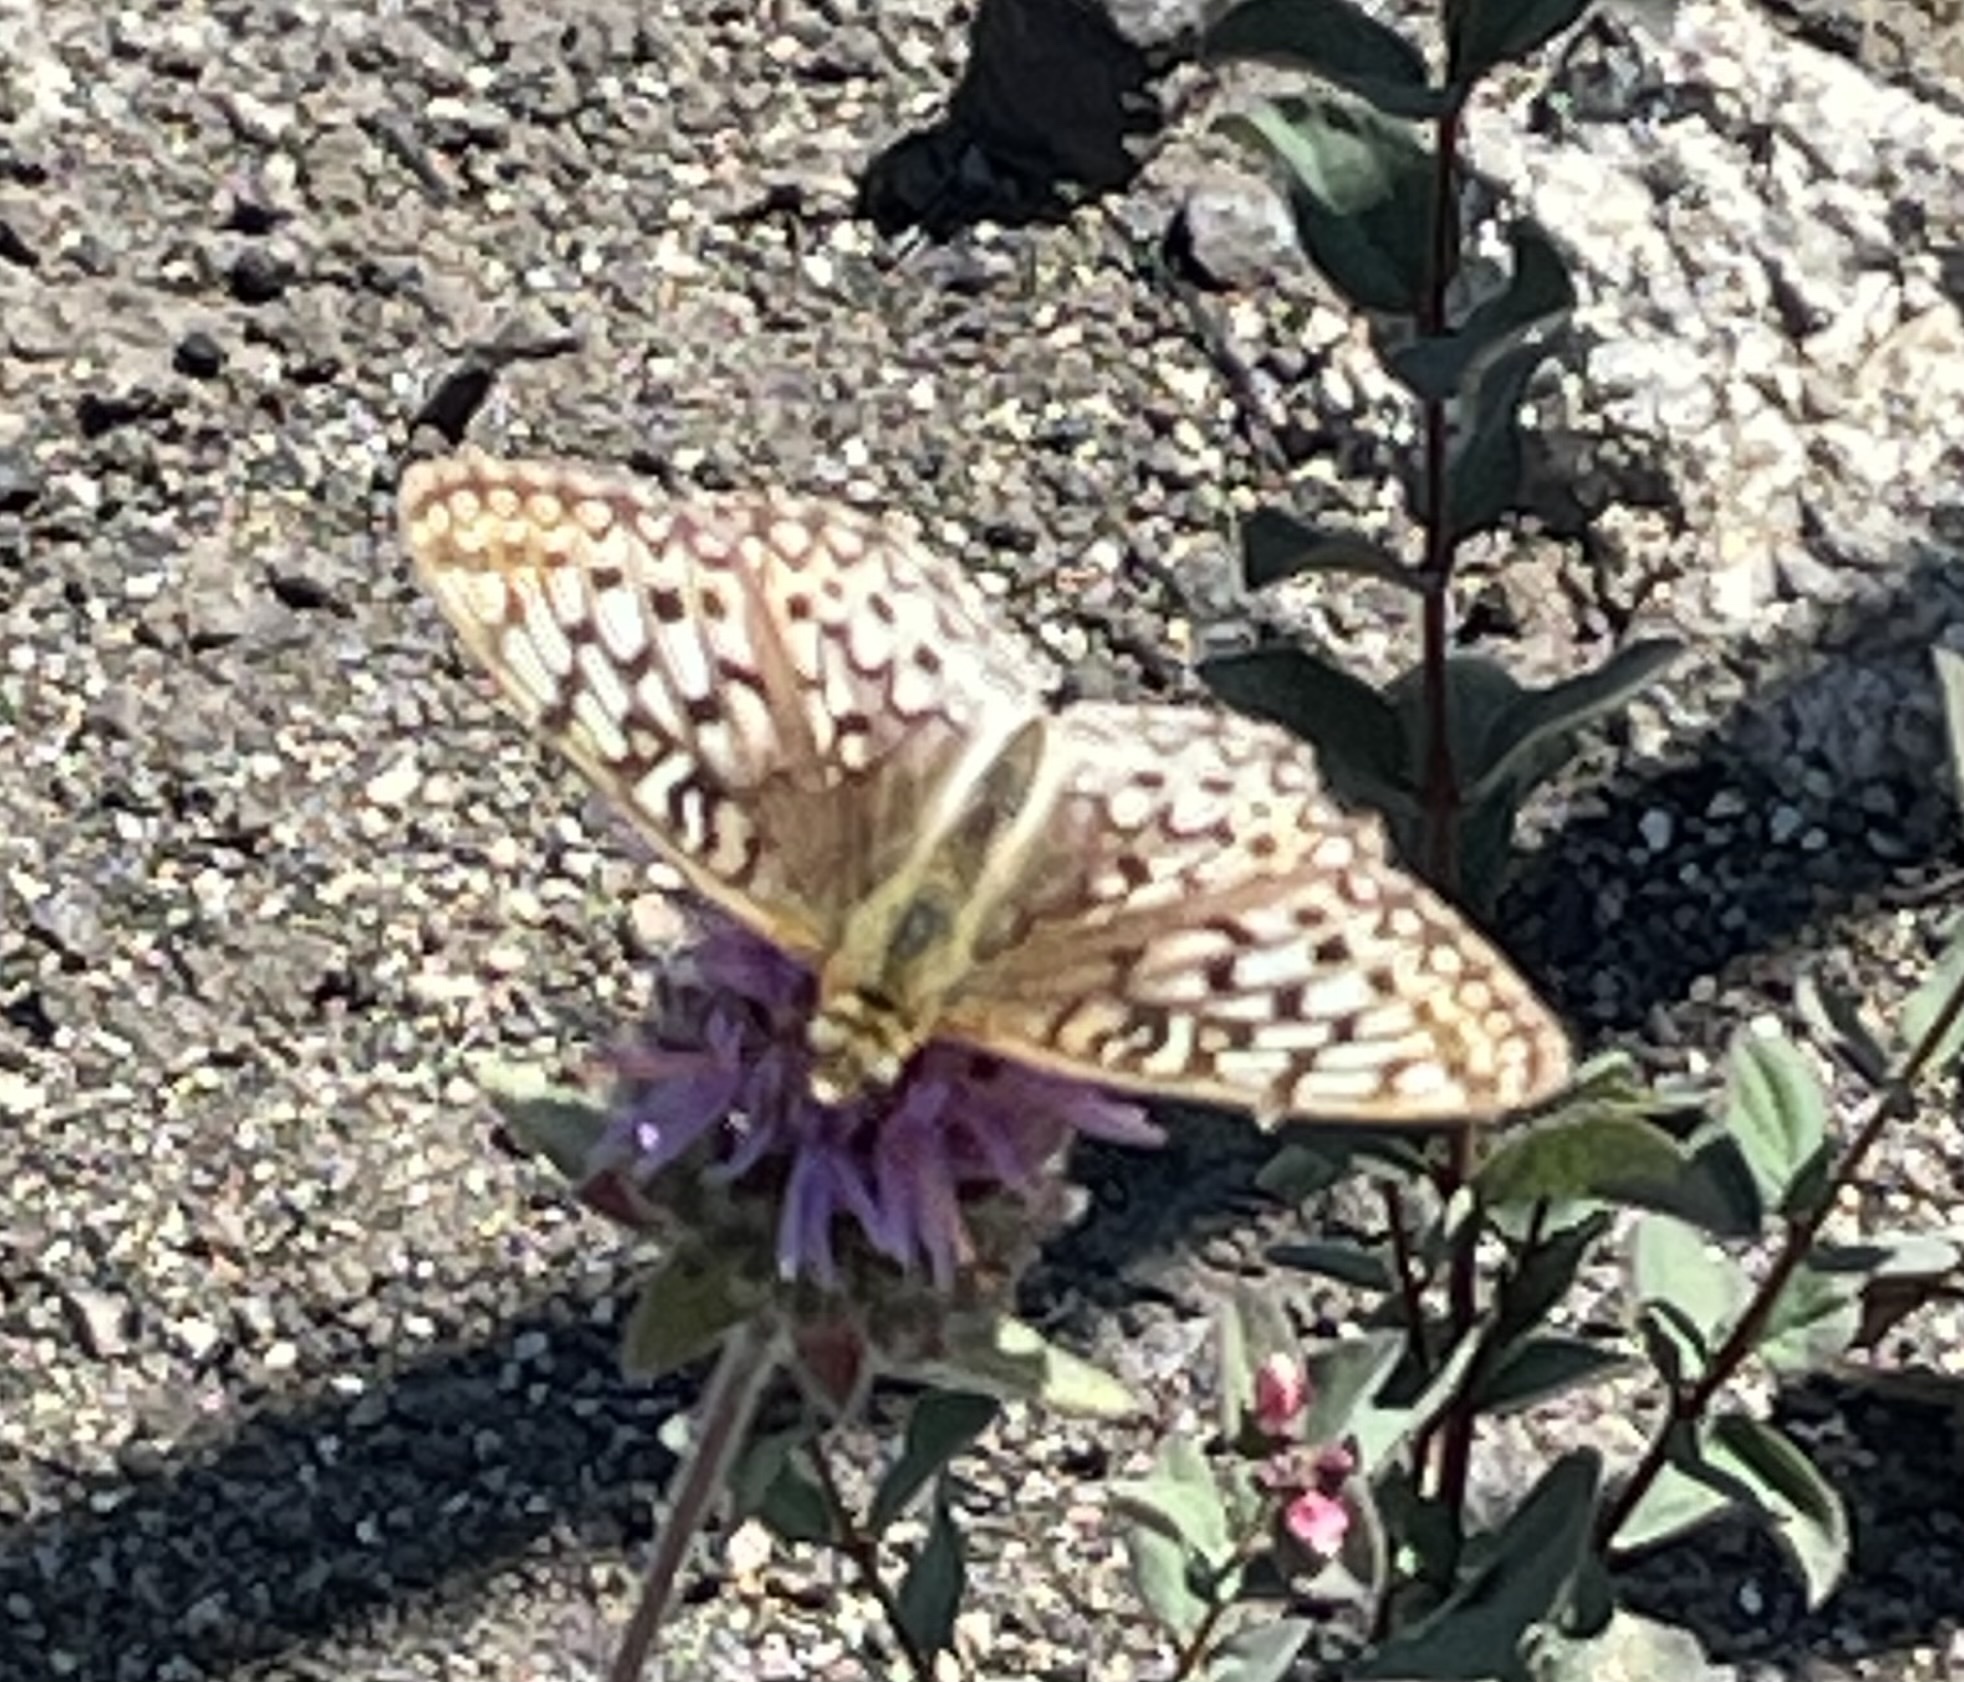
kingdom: Animalia
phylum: Arthropoda
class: Insecta
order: Lepidoptera
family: Nymphalidae
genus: Speyeria
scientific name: Speyeria callippe
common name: Callippe fritillary
